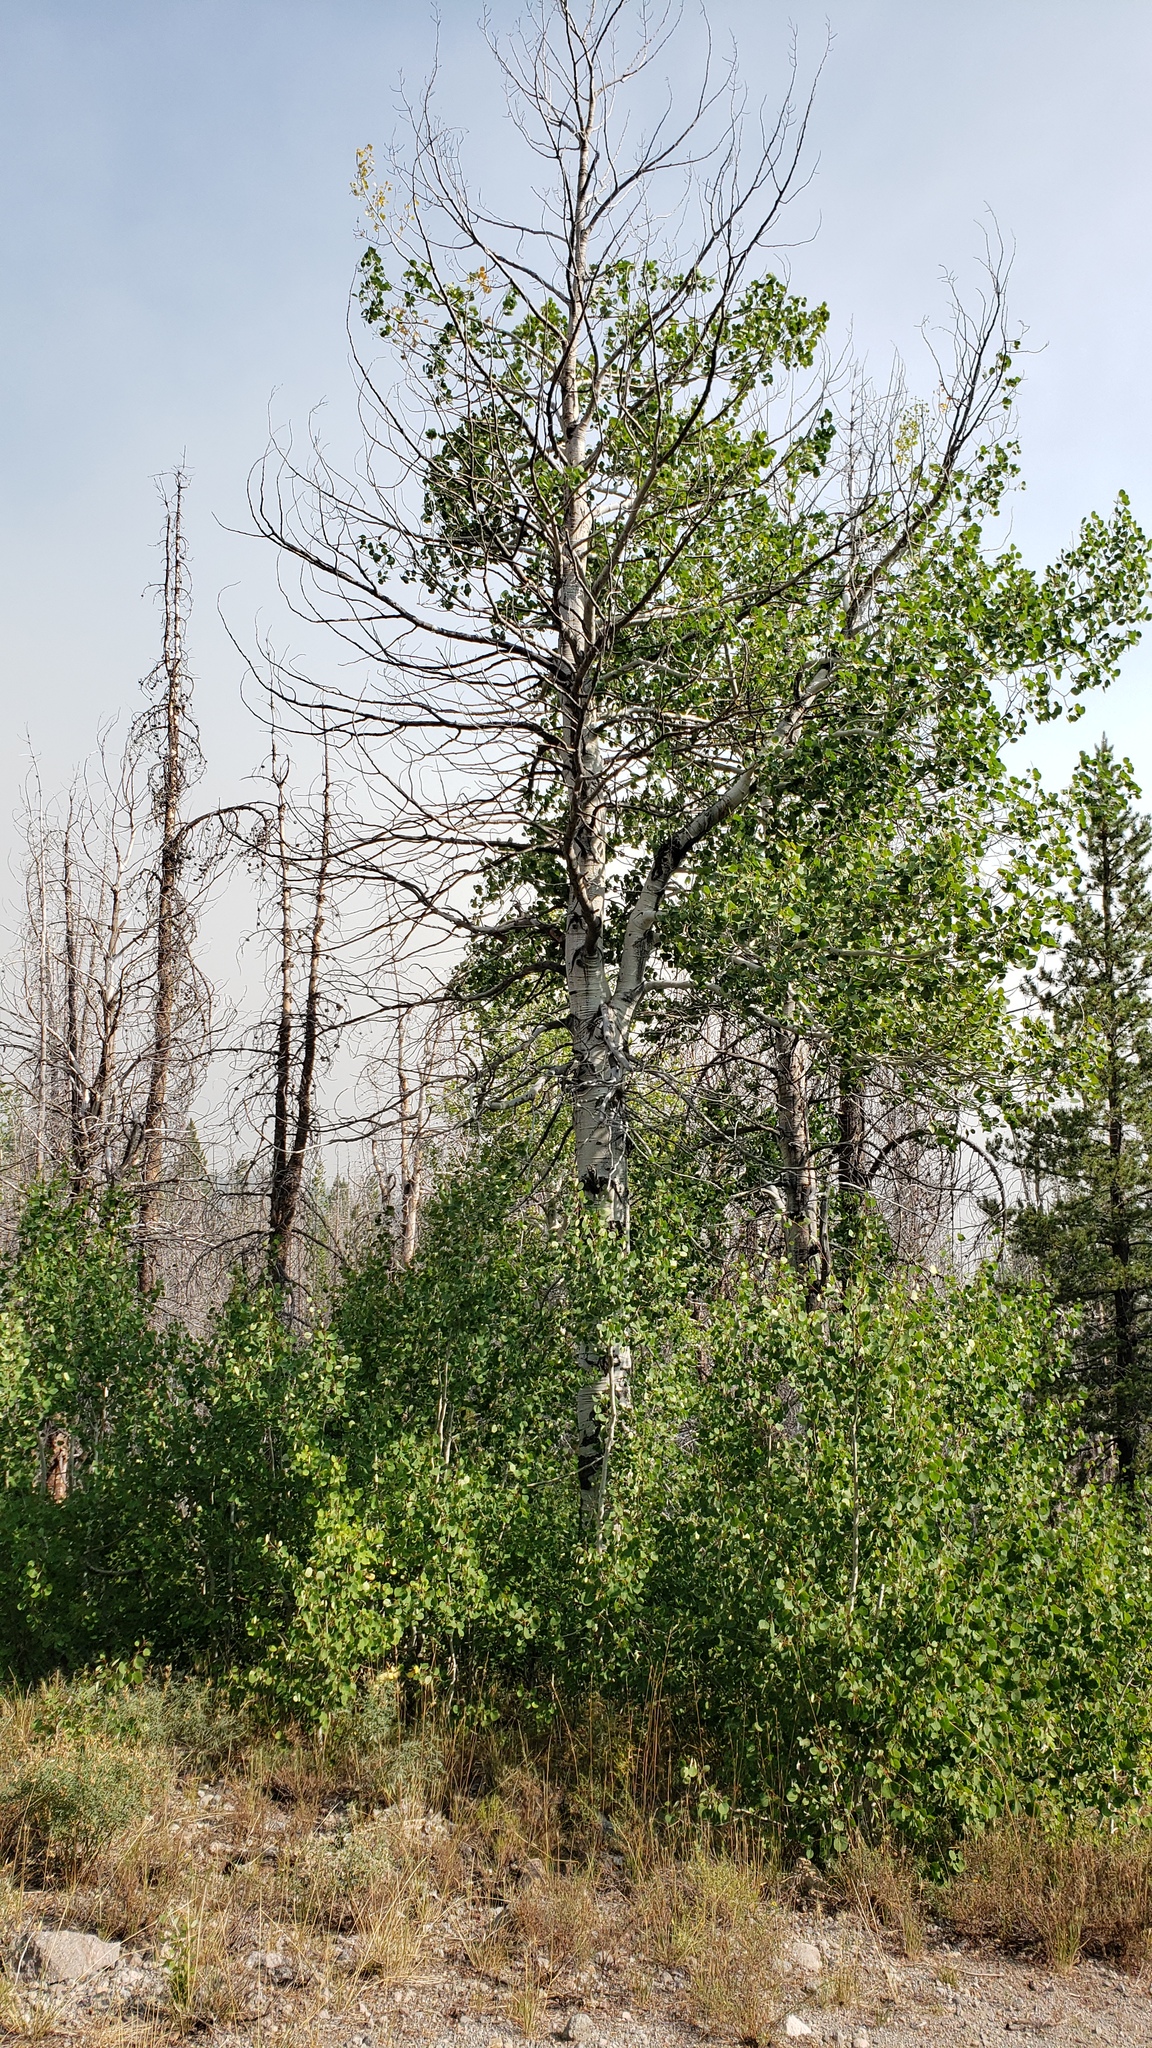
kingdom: Plantae
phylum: Tracheophyta
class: Magnoliopsida
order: Malpighiales
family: Salicaceae
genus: Populus
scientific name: Populus tremuloides
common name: Quaking aspen
